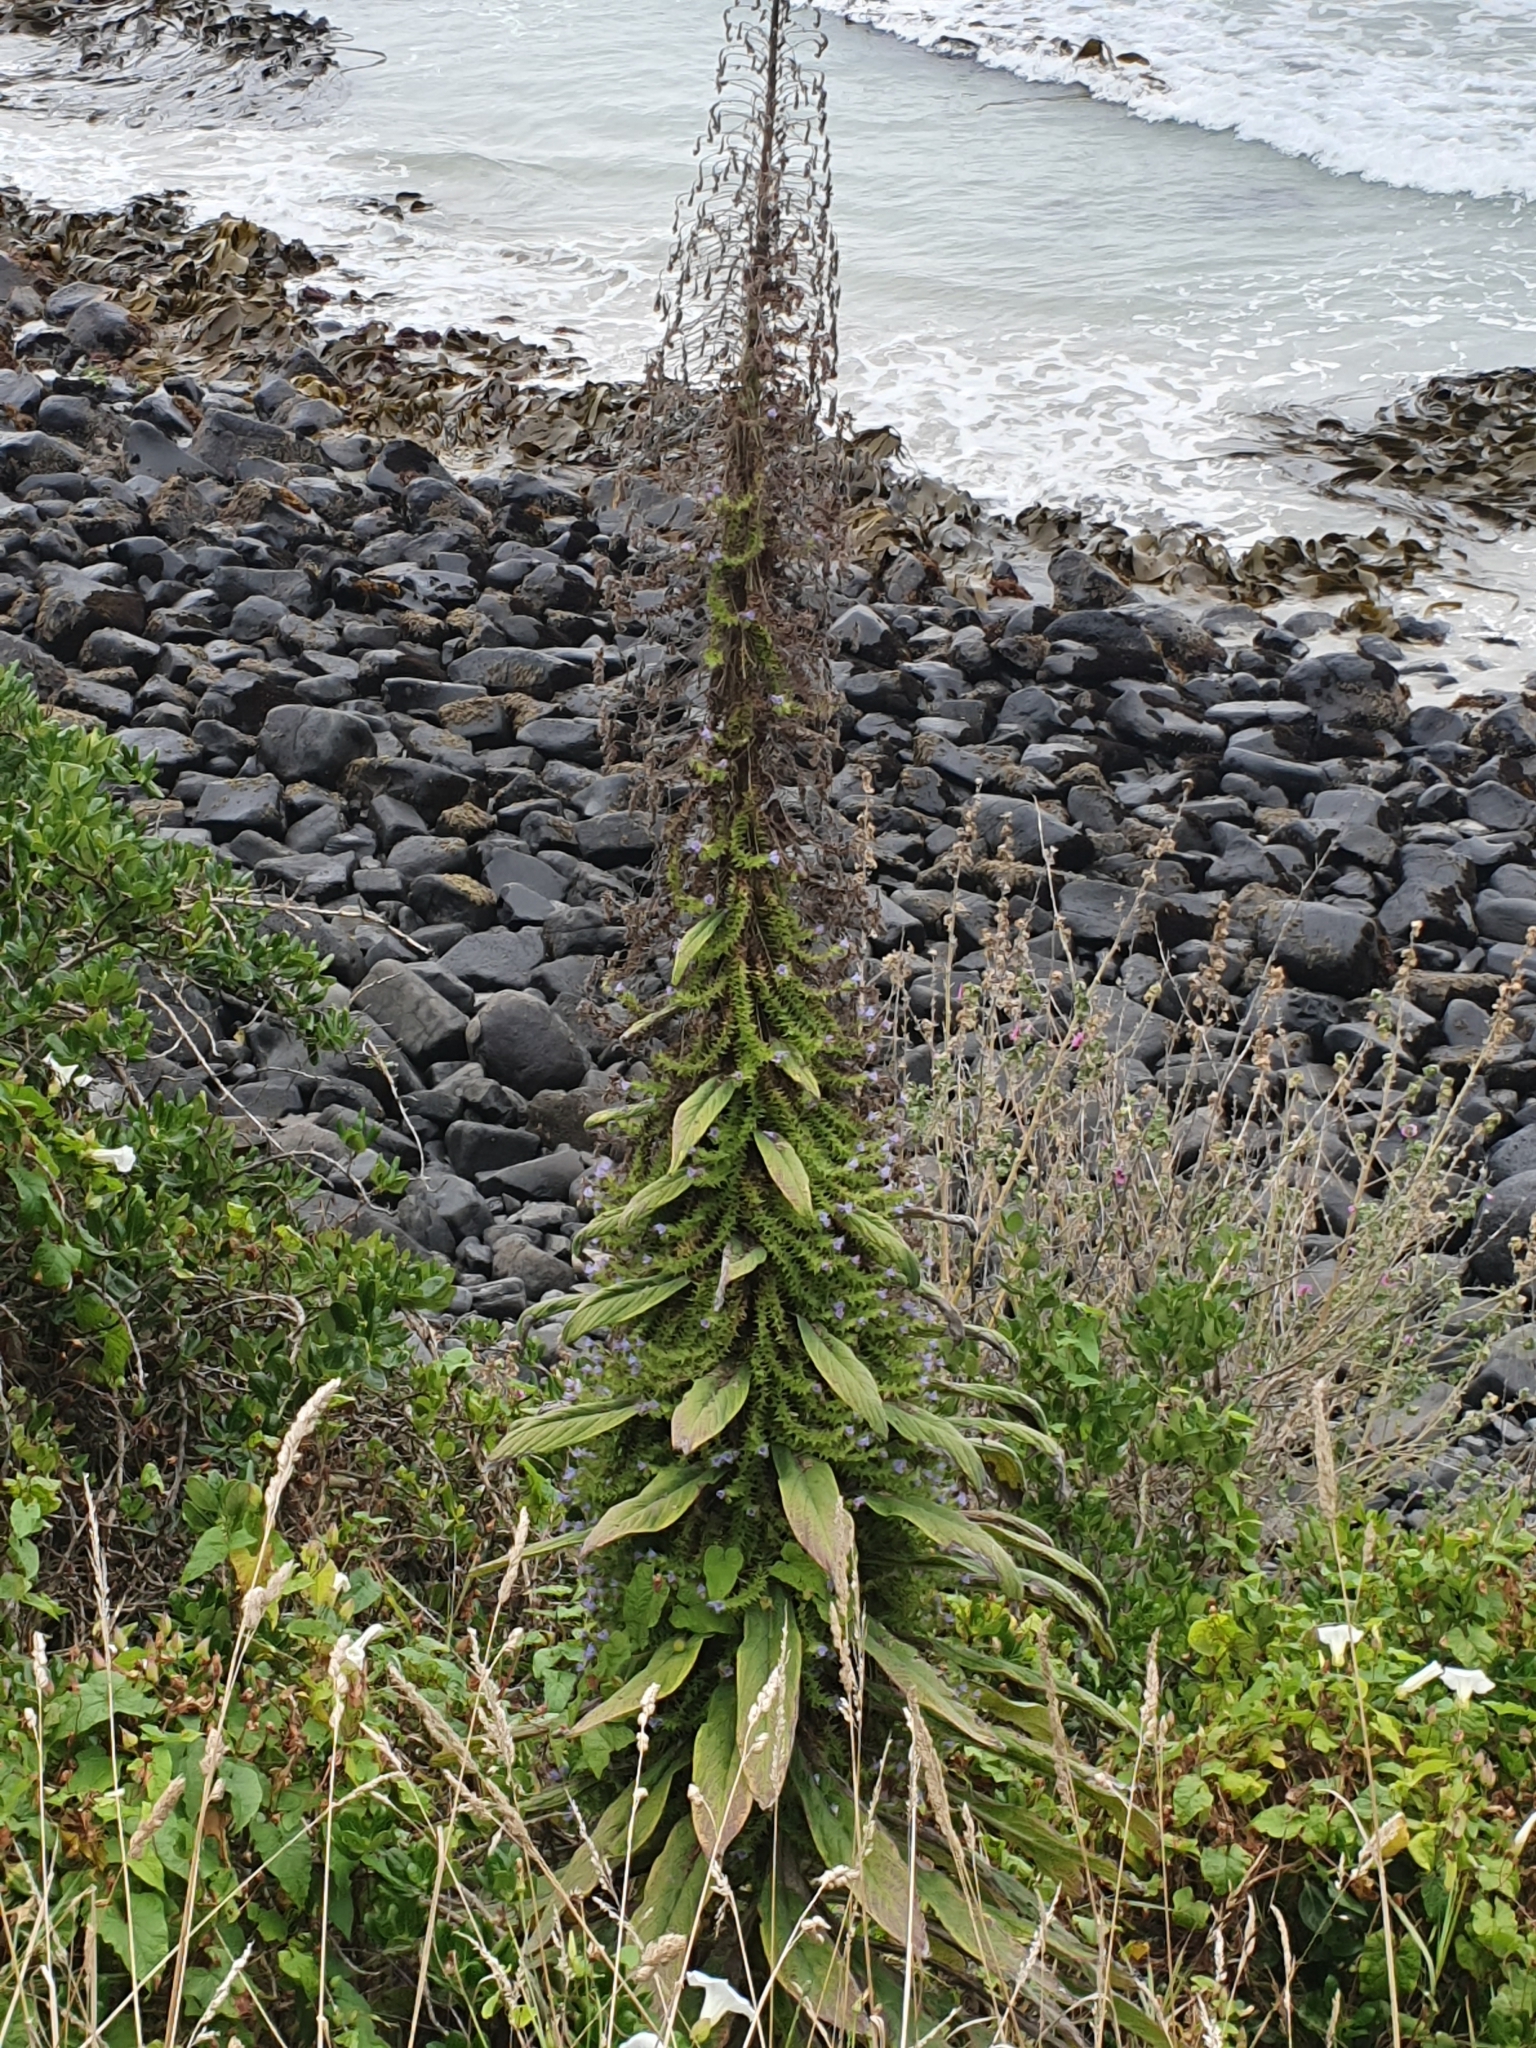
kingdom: Plantae
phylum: Tracheophyta
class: Magnoliopsida
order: Boraginales
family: Boraginaceae
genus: Echium
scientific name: Echium pininana
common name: Giant viper's-bugloss
